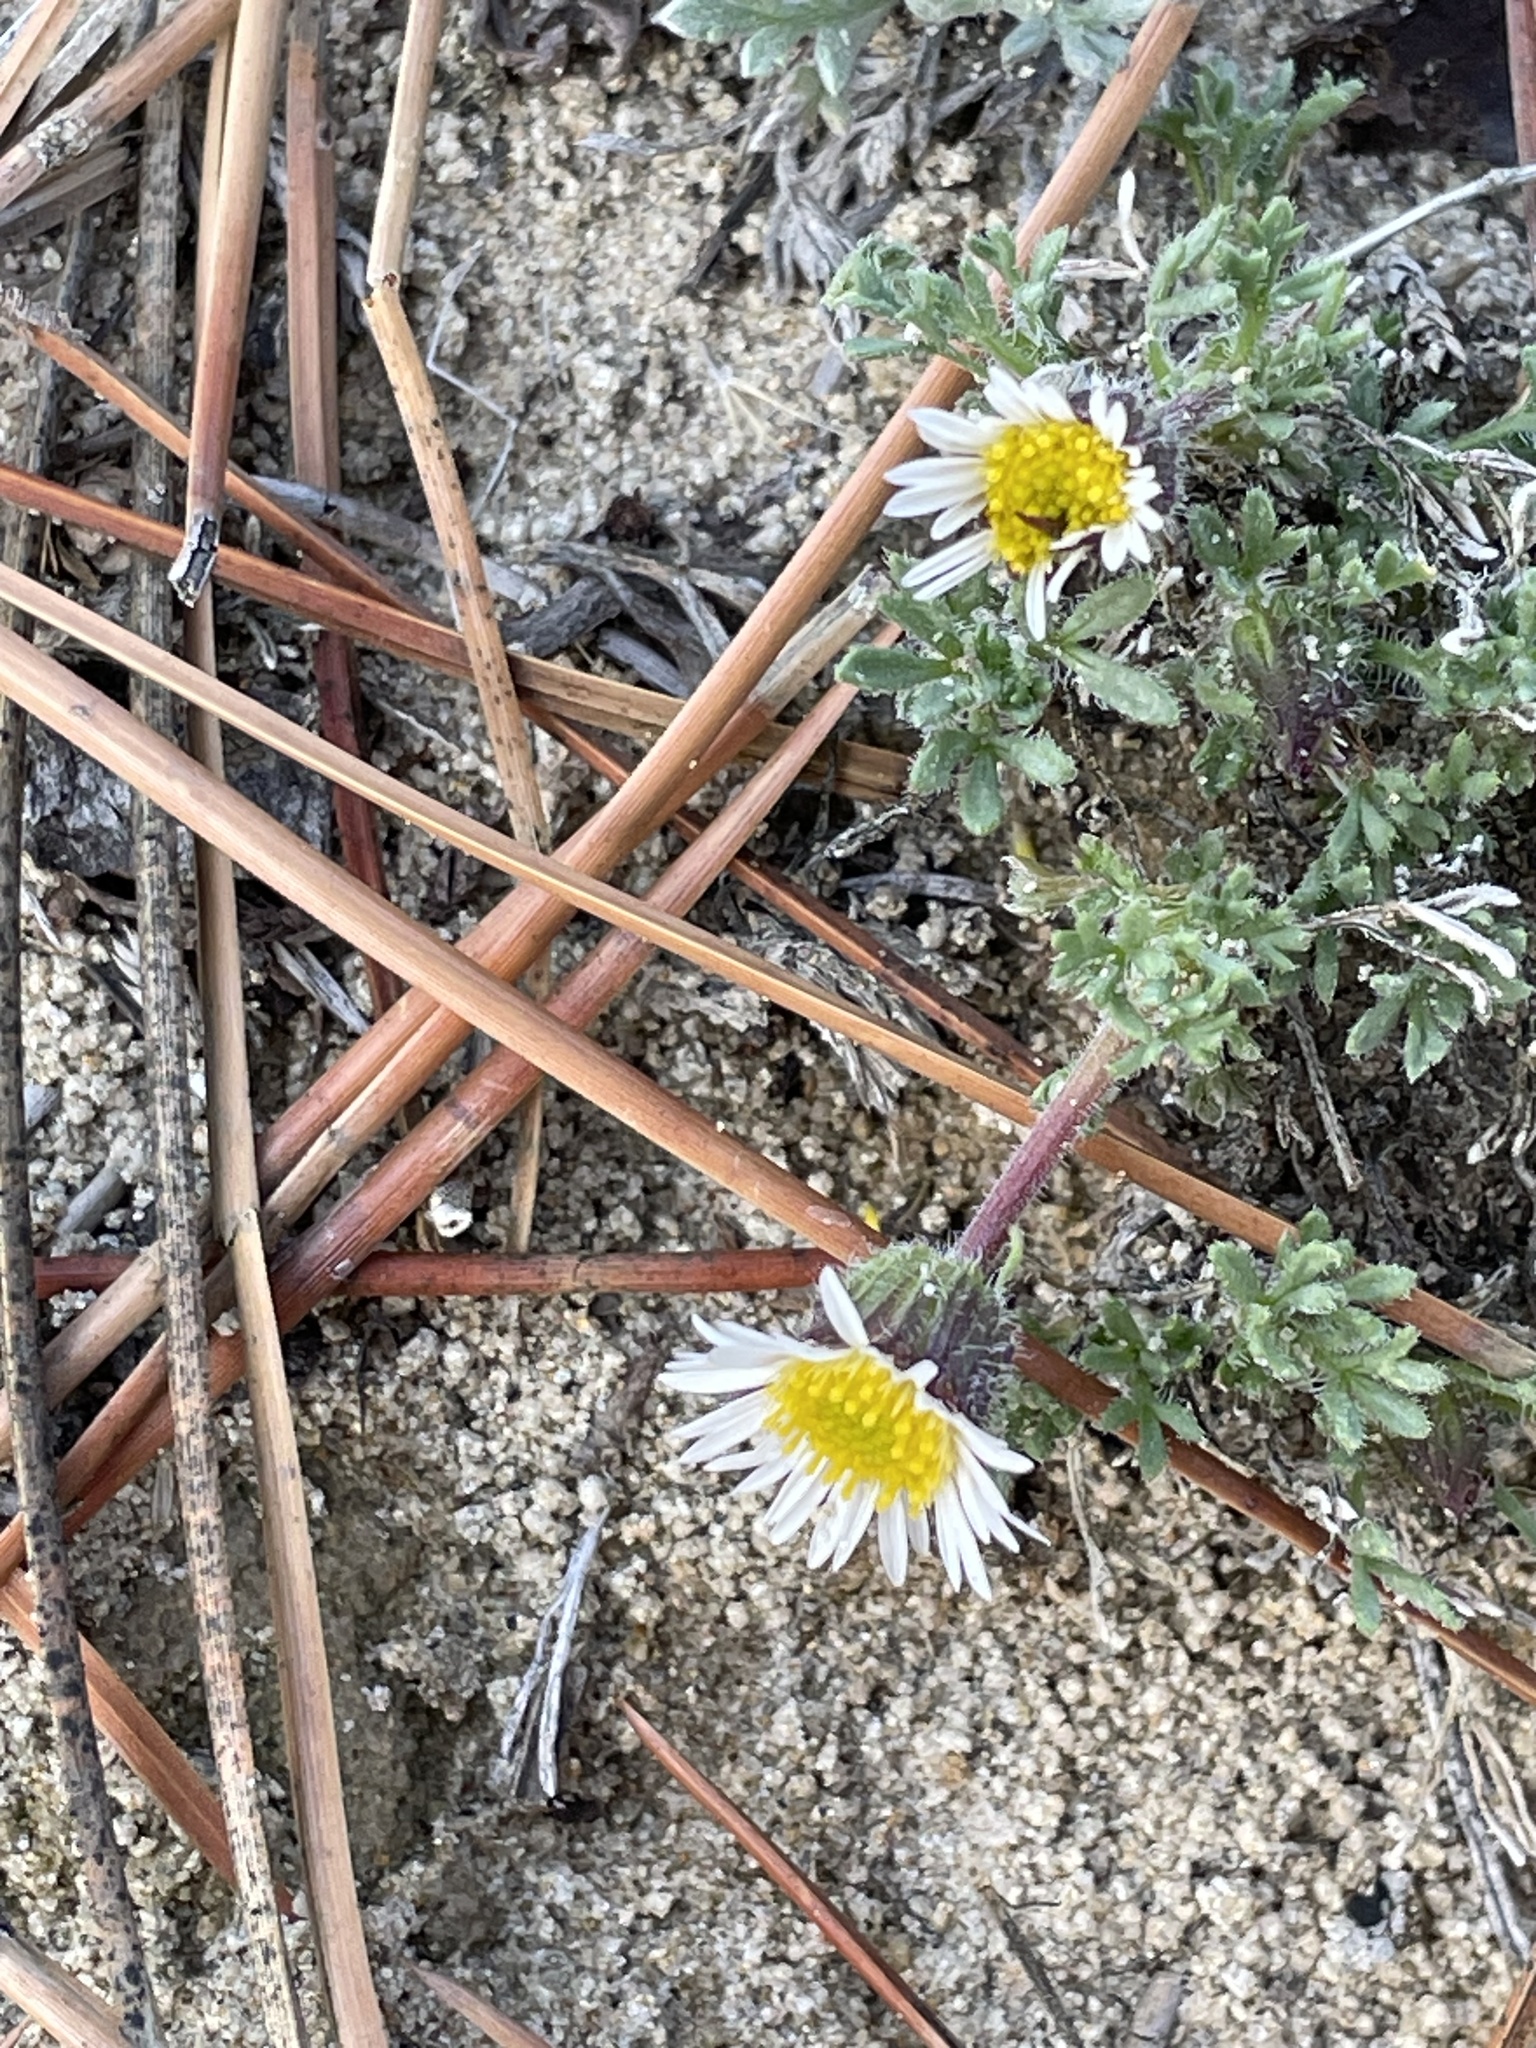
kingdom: Plantae
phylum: Tracheophyta
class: Magnoliopsida
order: Asterales
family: Asteraceae
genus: Erigeron
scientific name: Erigeron compositus
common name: Dwarf mountain fleabane
